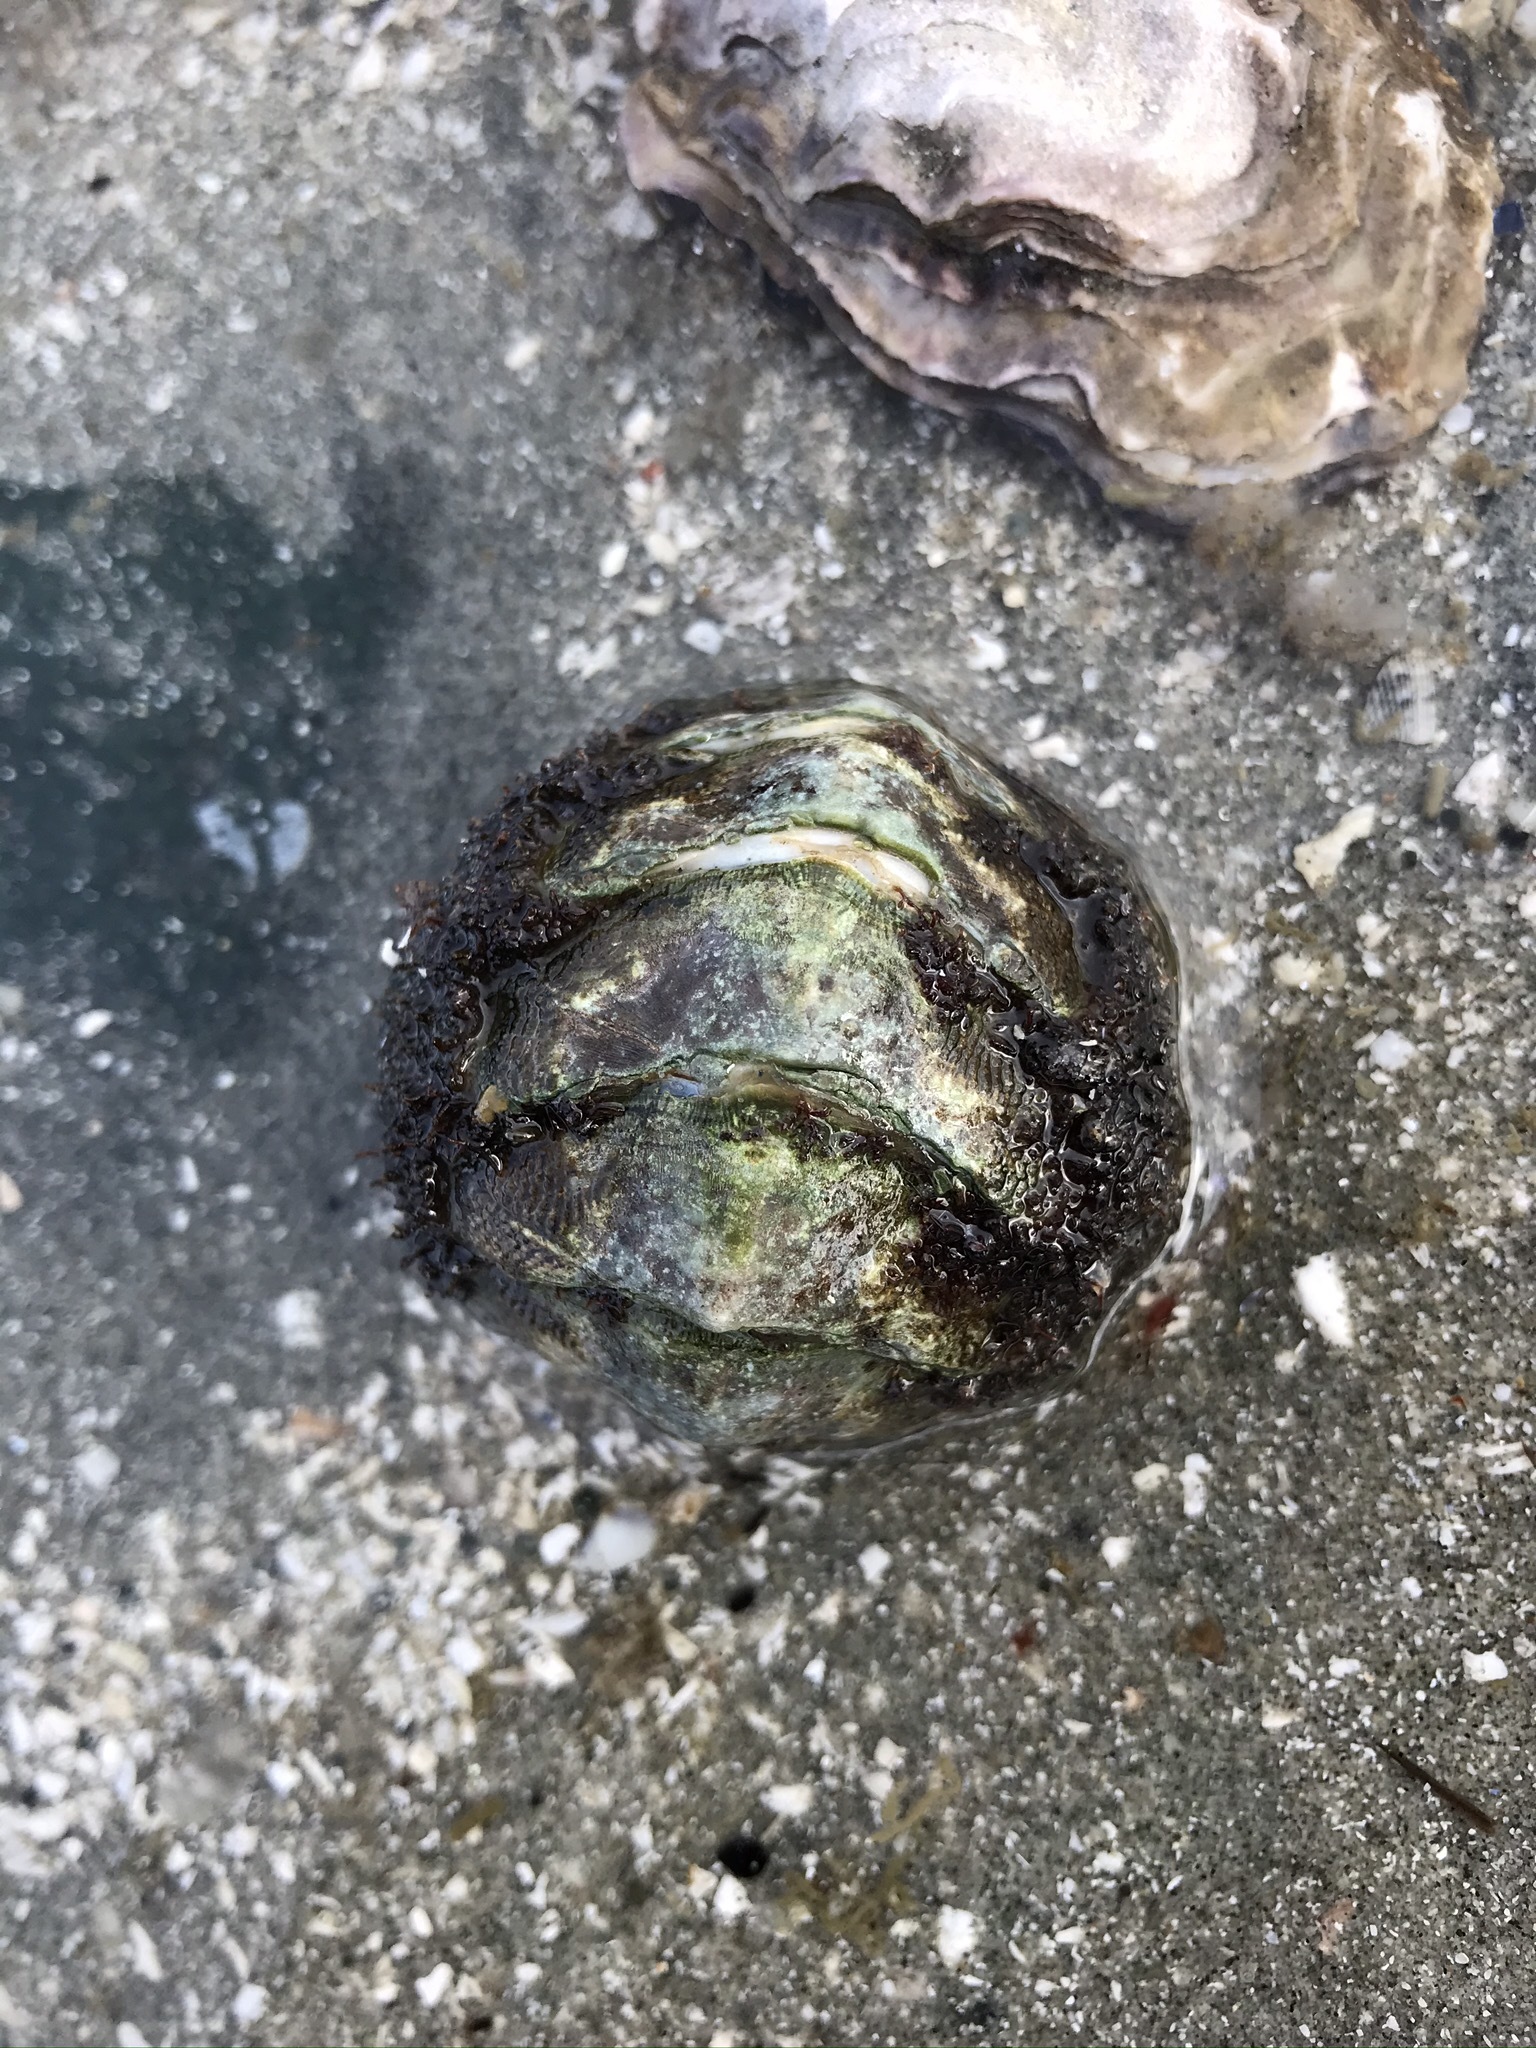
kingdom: Animalia
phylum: Mollusca
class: Polyplacophora
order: Chitonida
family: Mopaliidae
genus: Mopalia
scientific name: Mopalia lignosa
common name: Woody chiton
